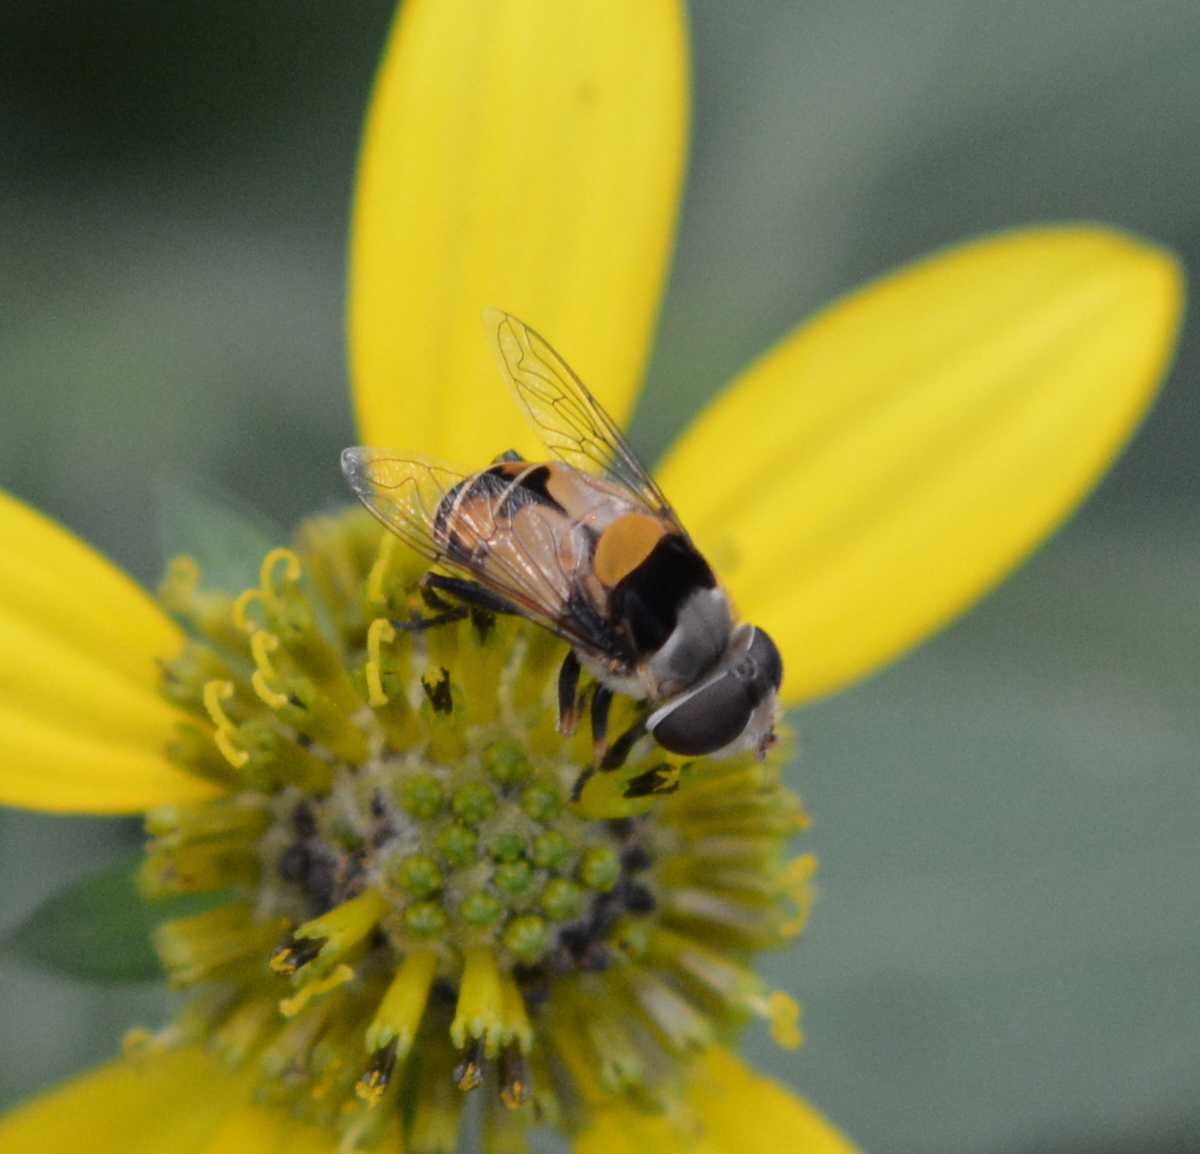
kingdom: Animalia
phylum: Arthropoda
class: Insecta
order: Diptera
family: Syrphidae
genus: Palpada
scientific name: Palpada pusilla
